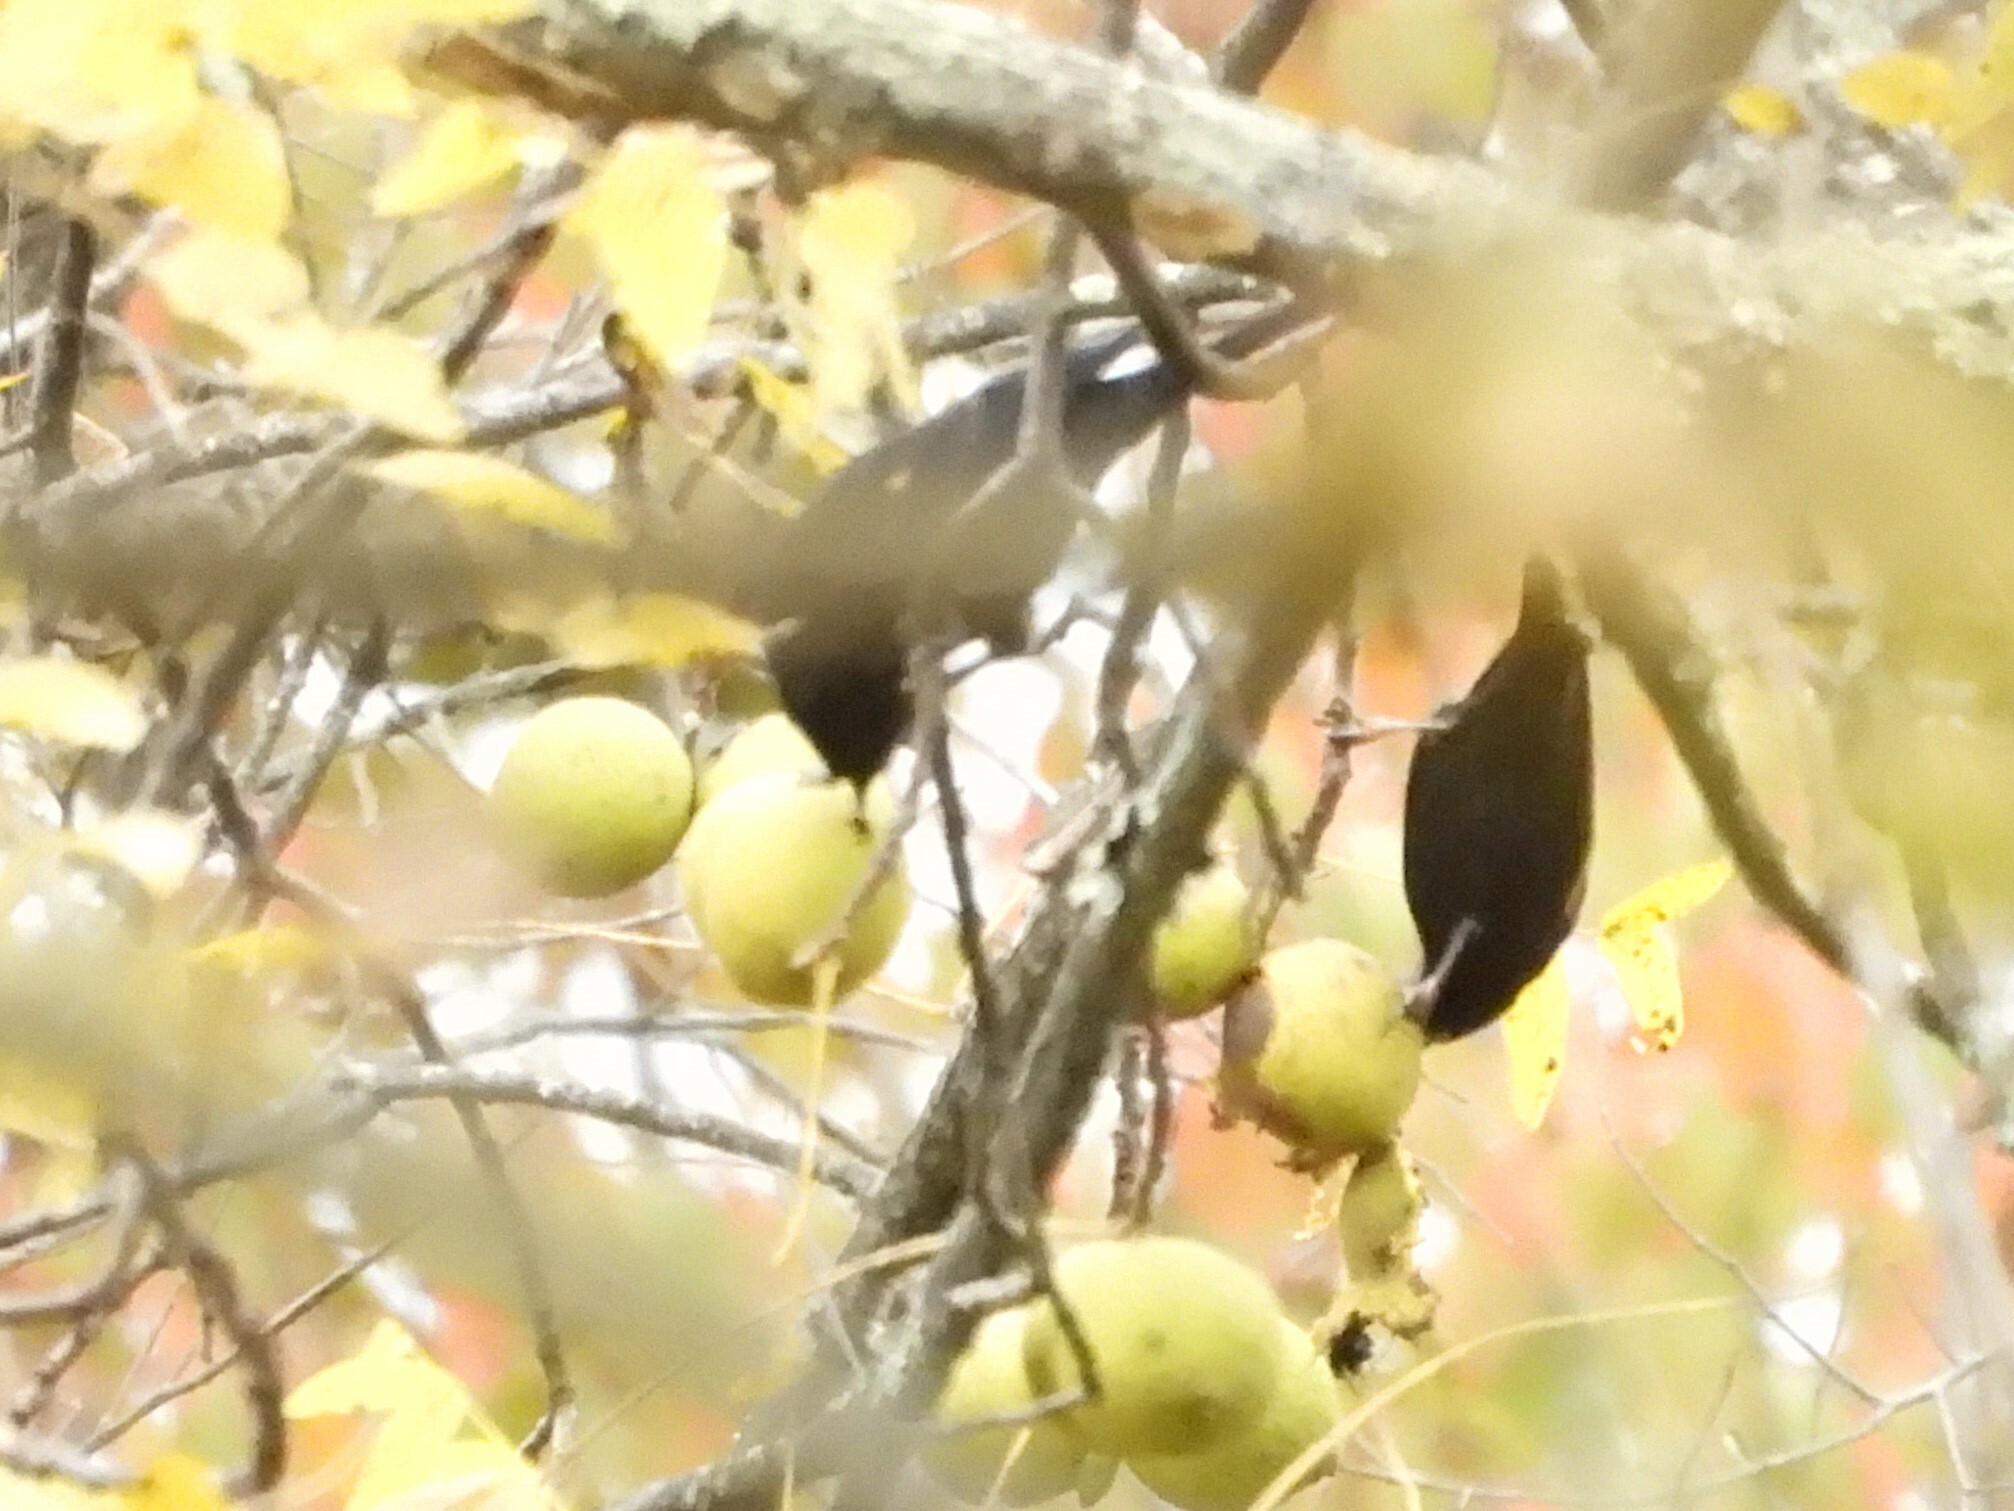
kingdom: Animalia
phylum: Chordata
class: Aves
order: Passeriformes
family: Icteridae
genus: Molothrus
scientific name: Molothrus ater
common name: Brown-headed cowbird
